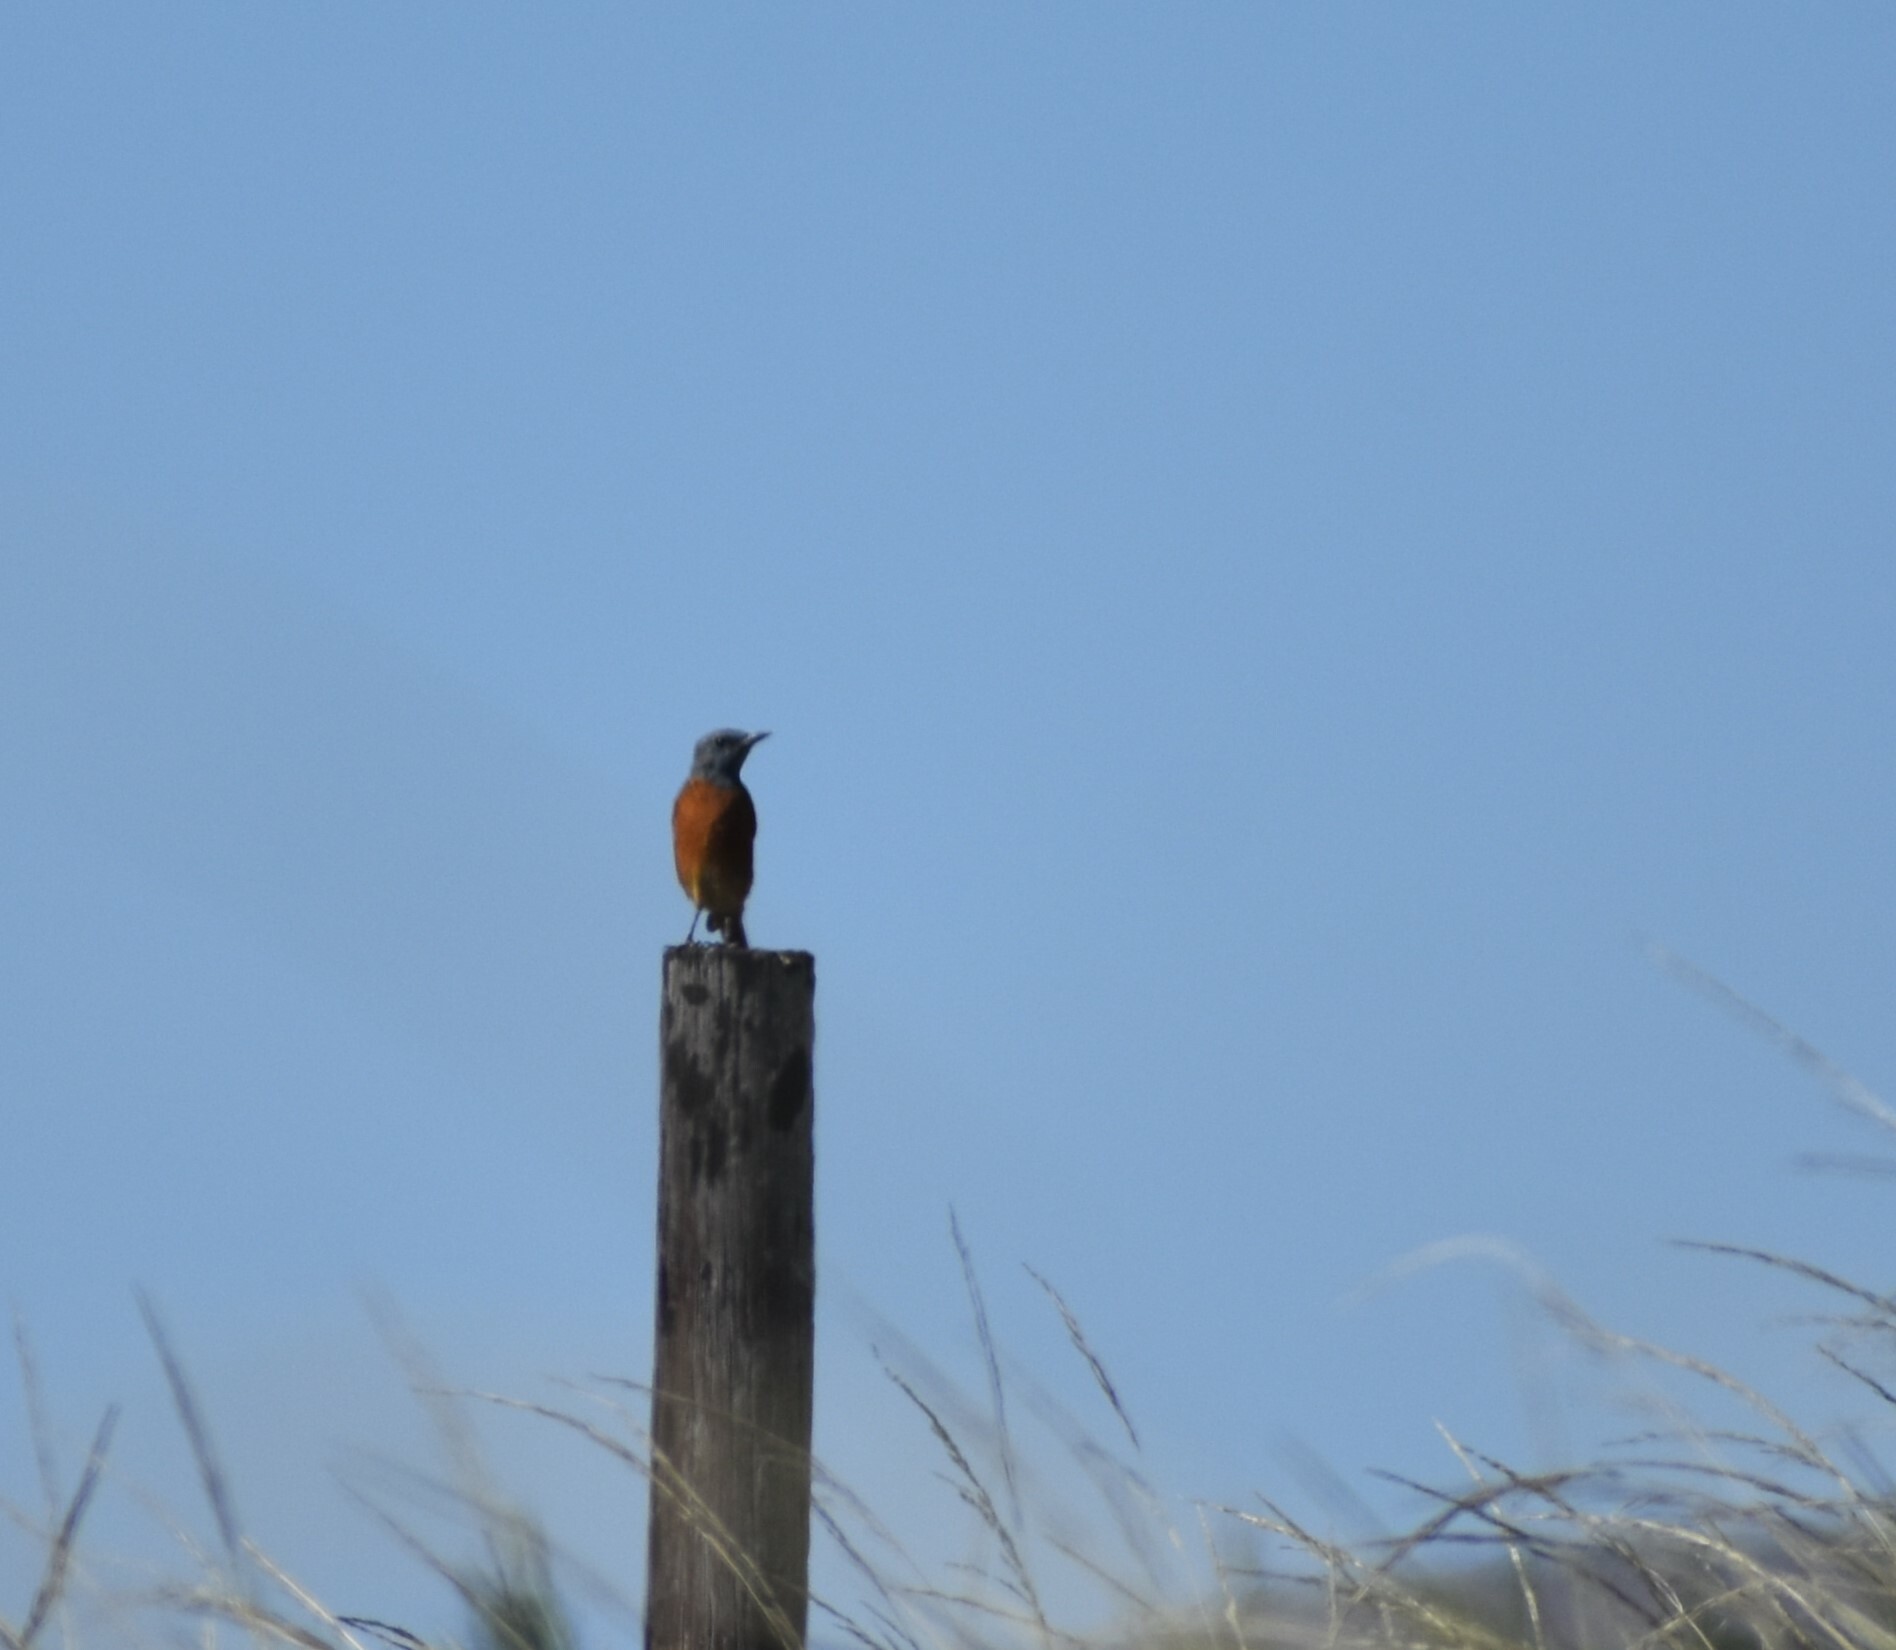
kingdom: Animalia
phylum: Chordata
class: Aves
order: Passeriformes
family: Muscicapidae
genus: Monticola
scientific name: Monticola rupestris
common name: Cape rock thrush
